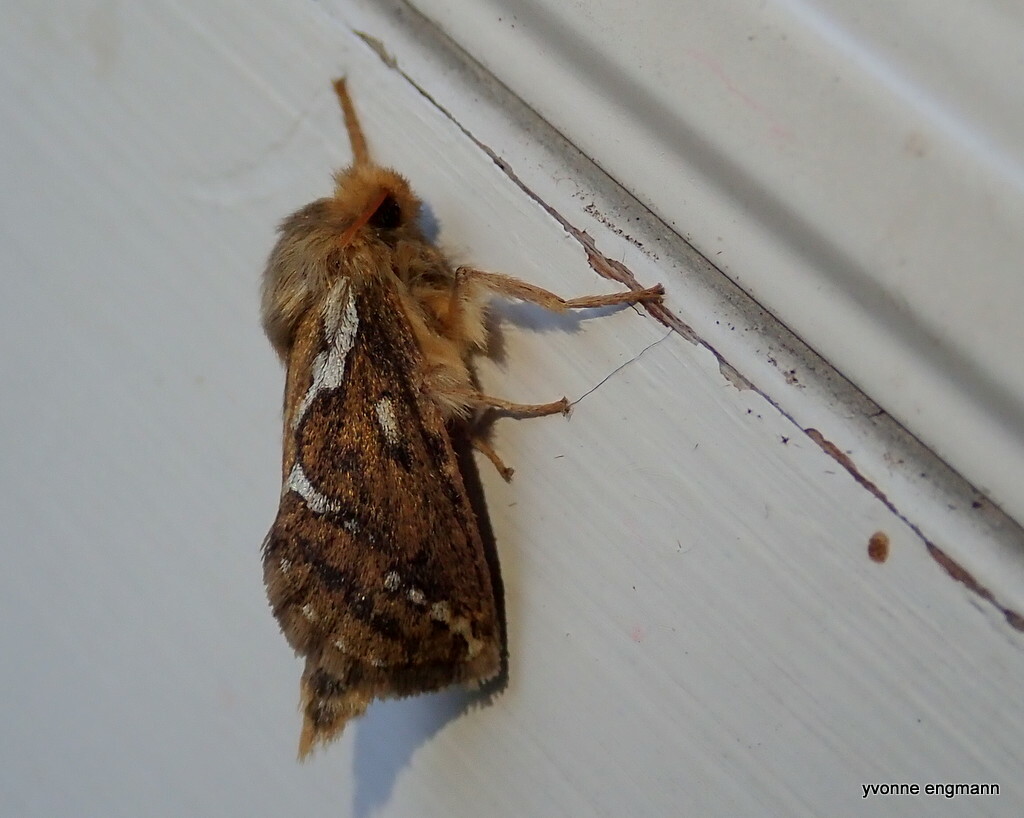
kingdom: Animalia
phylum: Arthropoda
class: Insecta
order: Lepidoptera
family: Hepialidae
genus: Korscheltellus
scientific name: Korscheltellus lupulina
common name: Common swift
